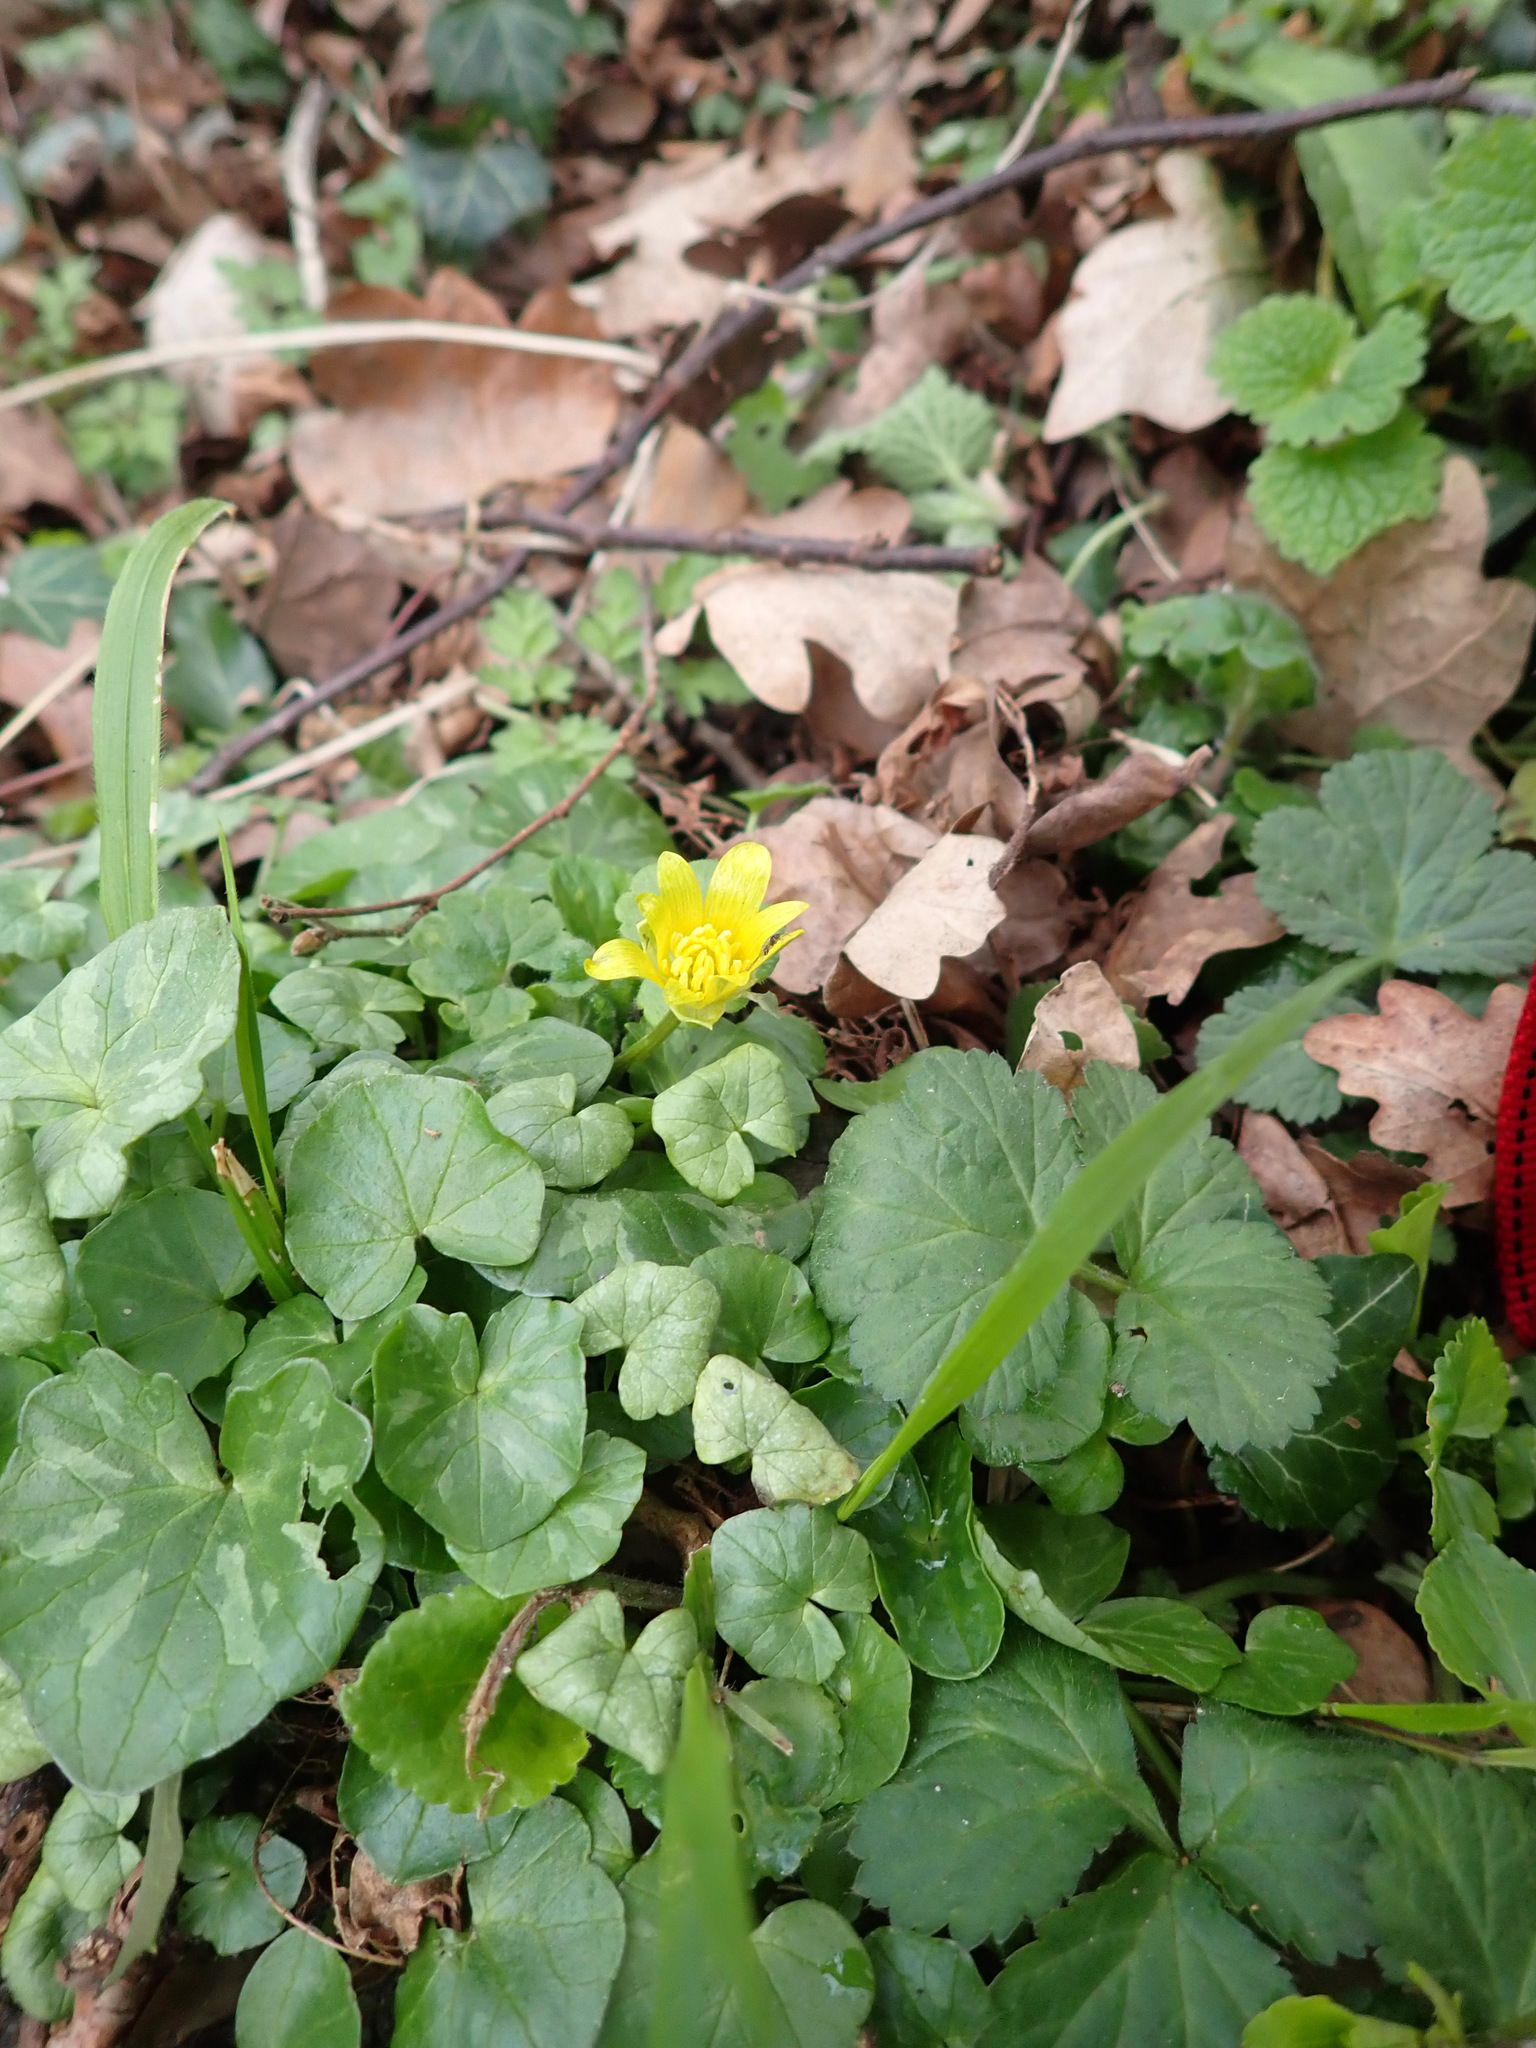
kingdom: Plantae
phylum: Tracheophyta
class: Magnoliopsida
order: Ranunculales
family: Ranunculaceae
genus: Ficaria
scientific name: Ficaria verna
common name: Lesser celandine
